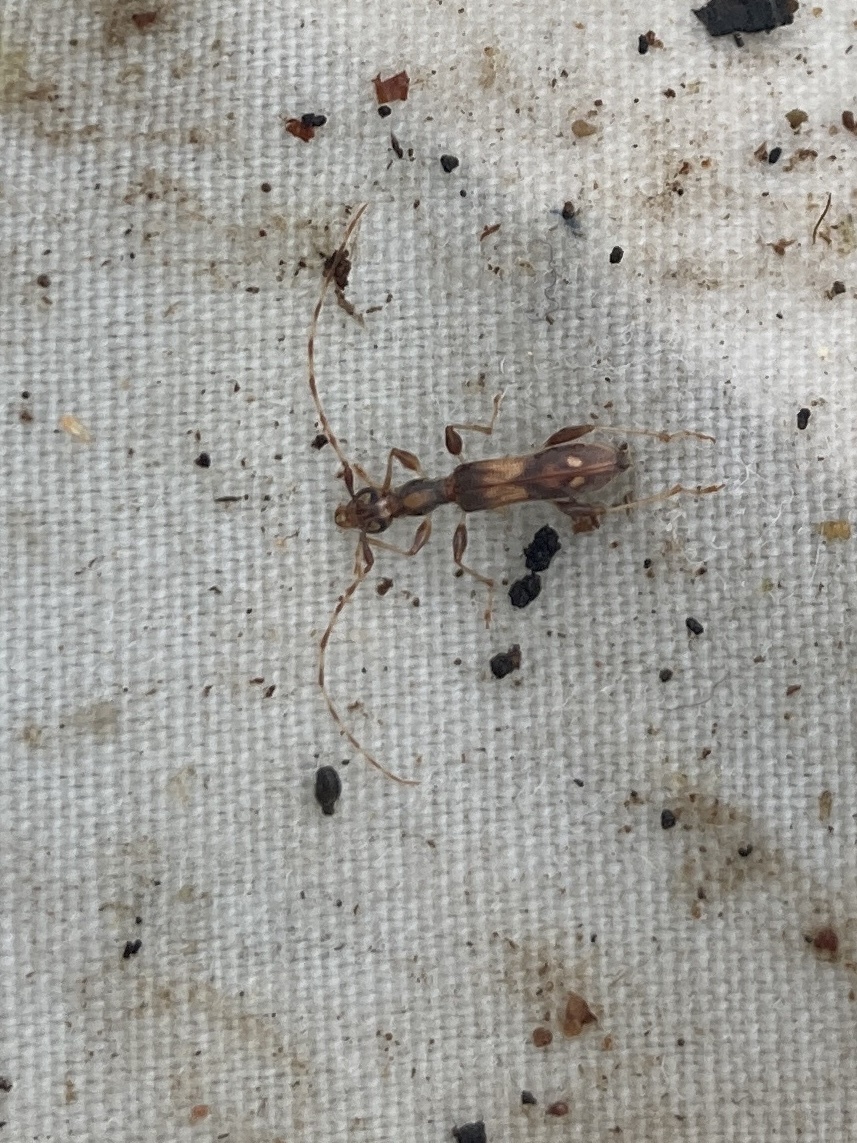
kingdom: Animalia
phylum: Arthropoda
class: Insecta
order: Coleoptera
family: Cerambycidae
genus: Longipalpus
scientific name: Longipalpus gynandropsidis
